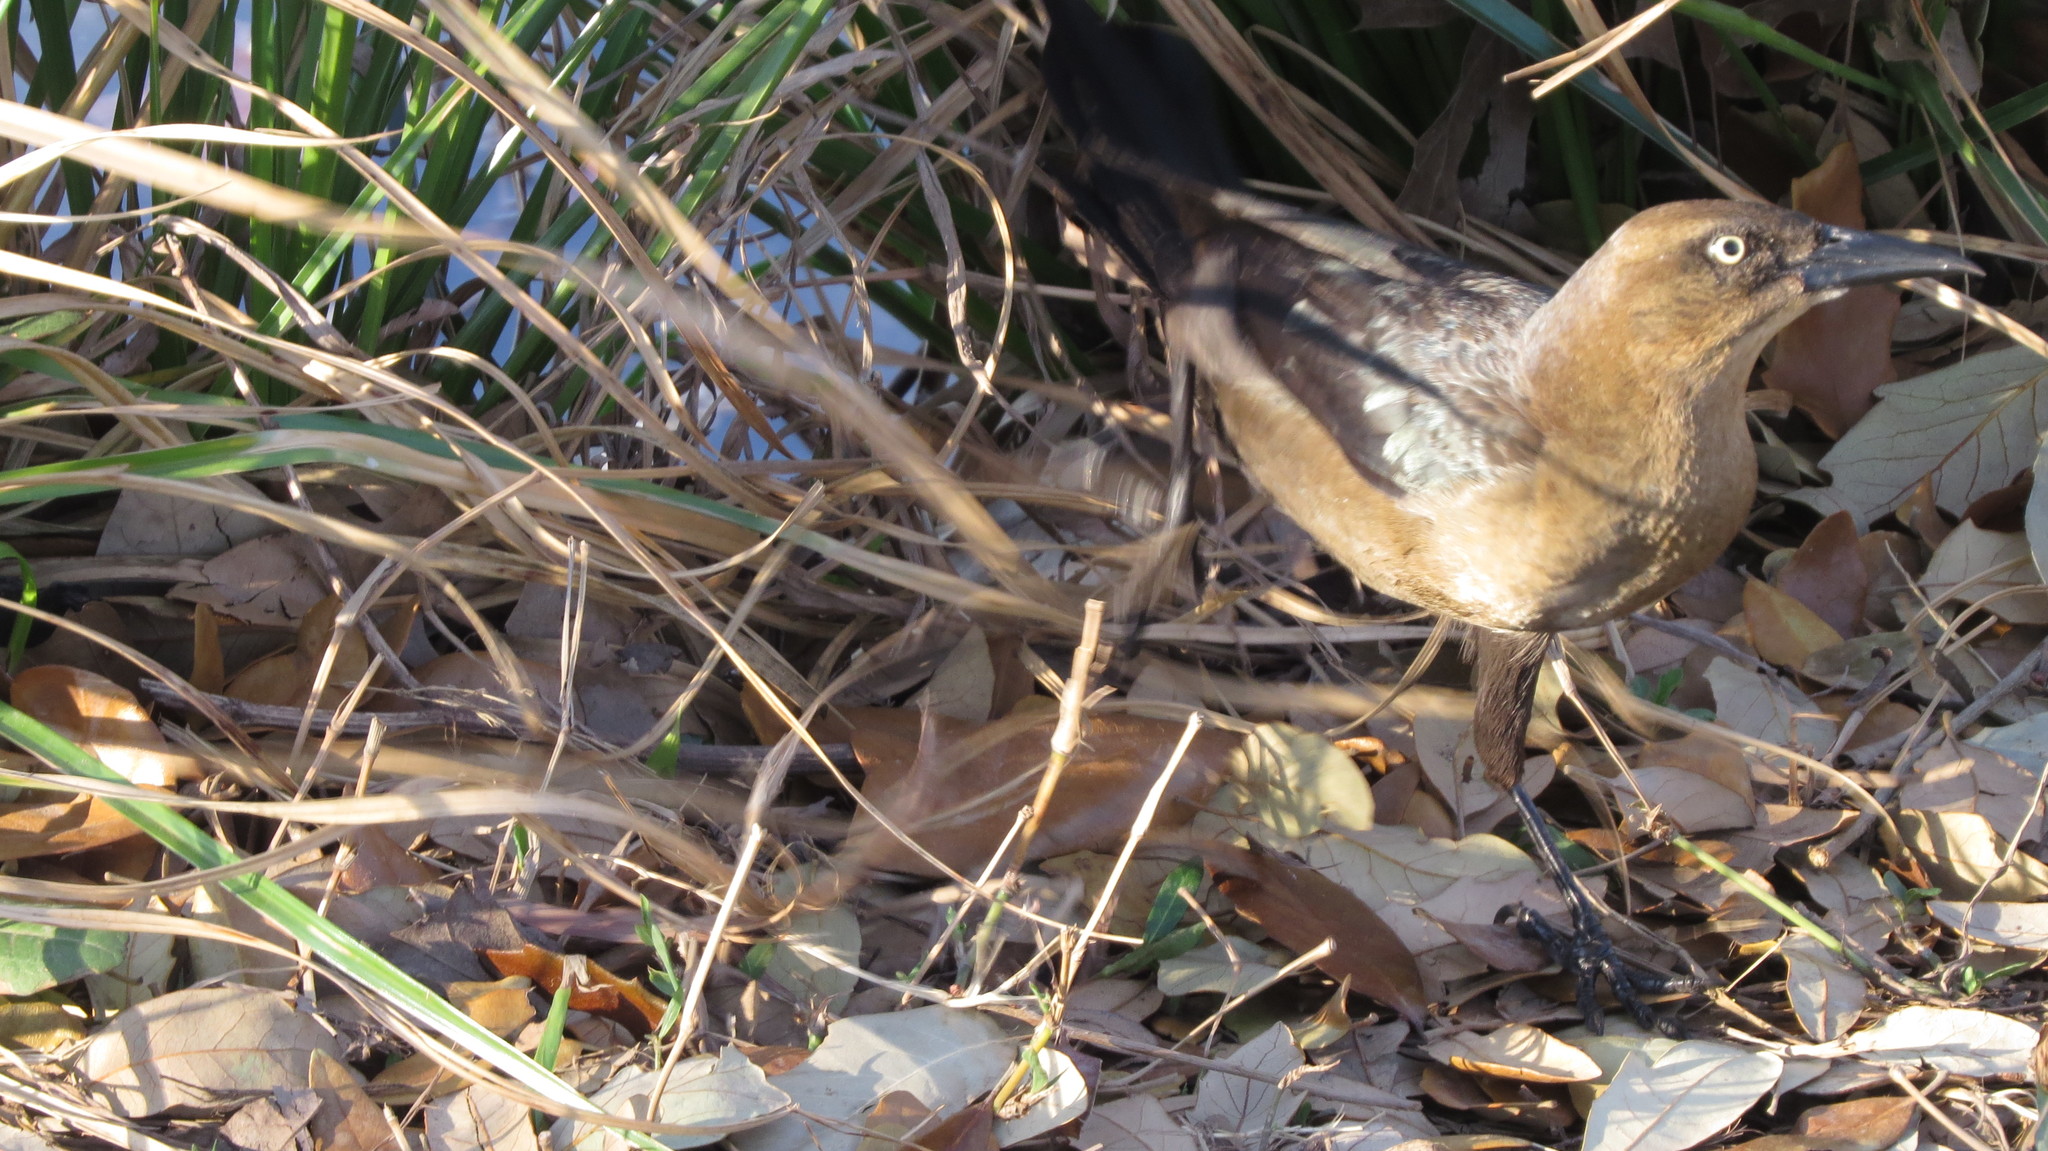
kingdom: Animalia
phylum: Chordata
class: Aves
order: Passeriformes
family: Icteridae
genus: Quiscalus
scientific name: Quiscalus mexicanus
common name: Great-tailed grackle
